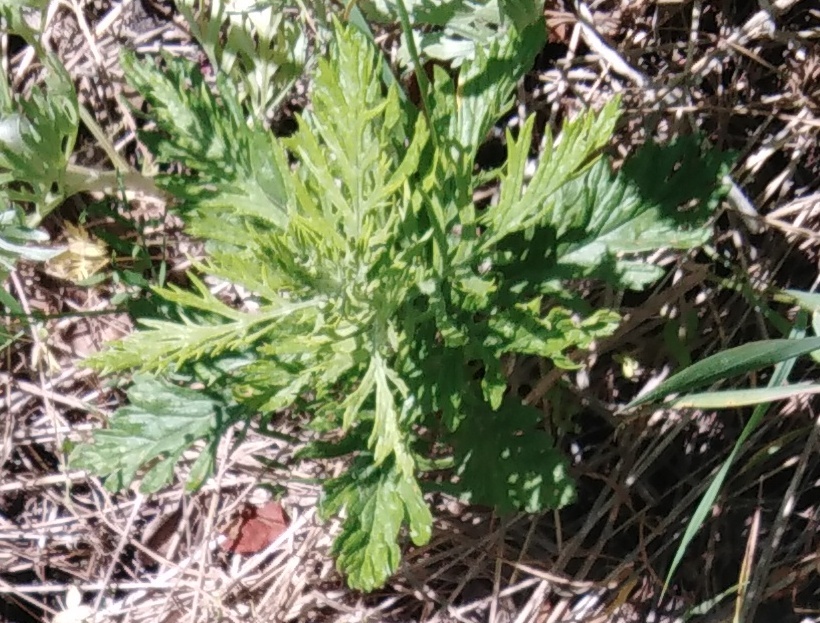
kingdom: Plantae
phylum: Tracheophyta
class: Magnoliopsida
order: Asterales
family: Asteraceae
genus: Jacobaea
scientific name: Jacobaea erucifolia
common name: Hoary ragwort
